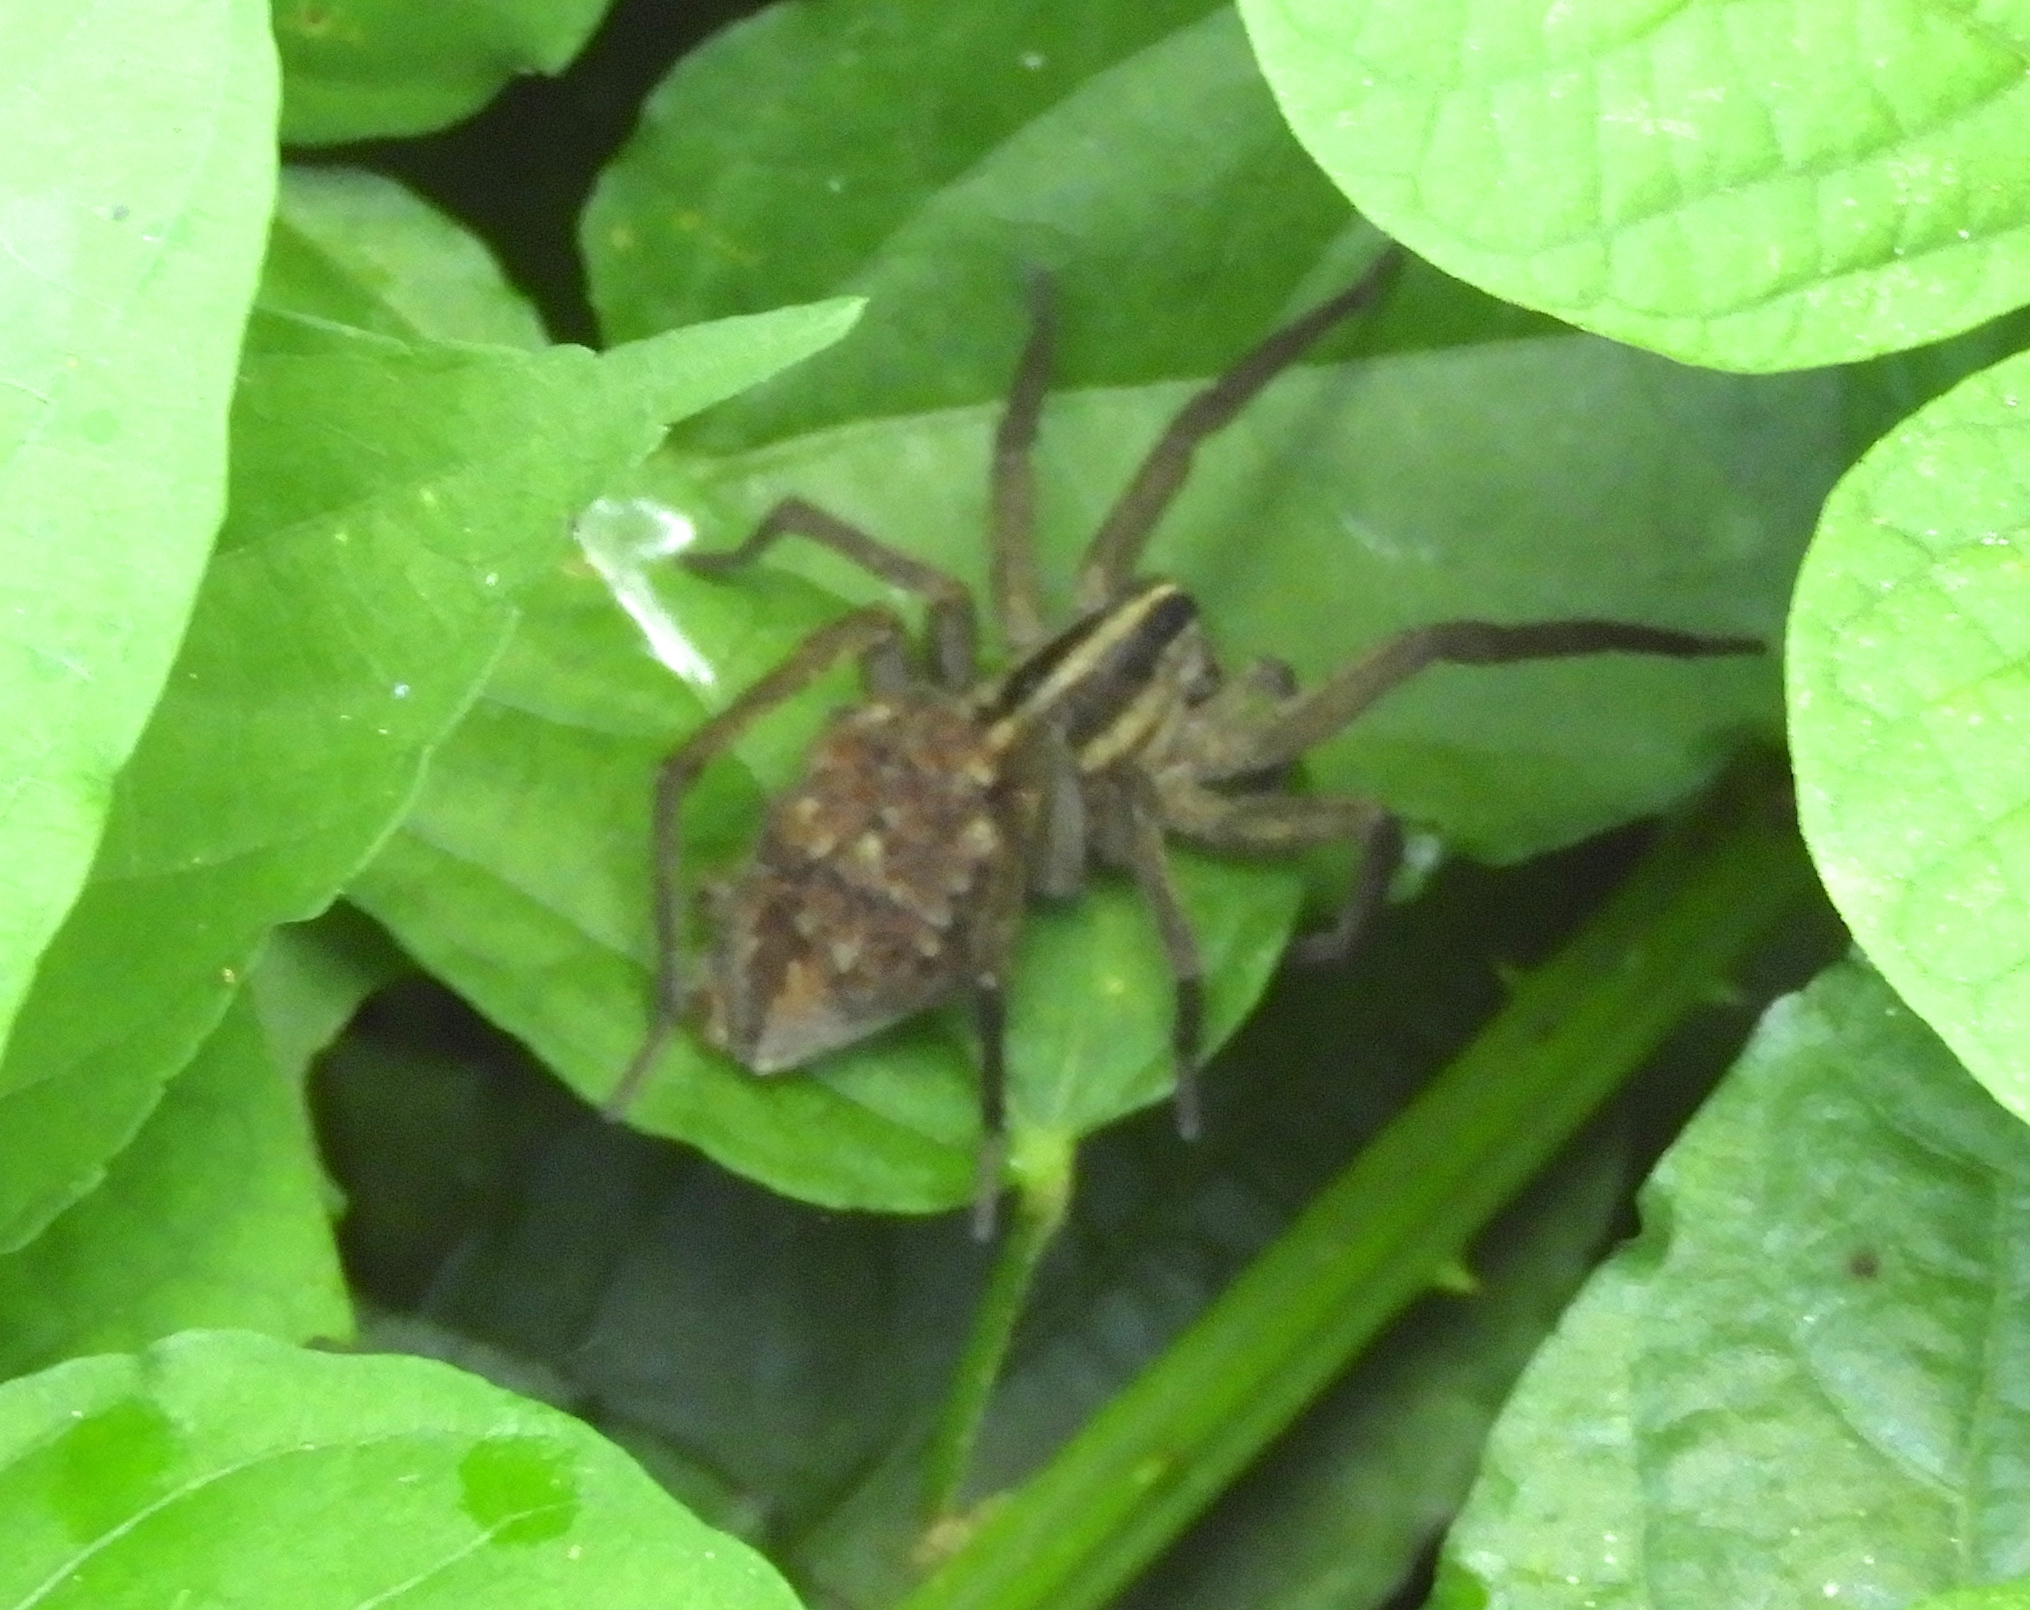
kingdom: Animalia
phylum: Arthropoda
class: Arachnida
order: Araneae
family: Lycosidae
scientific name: Lycosidae
